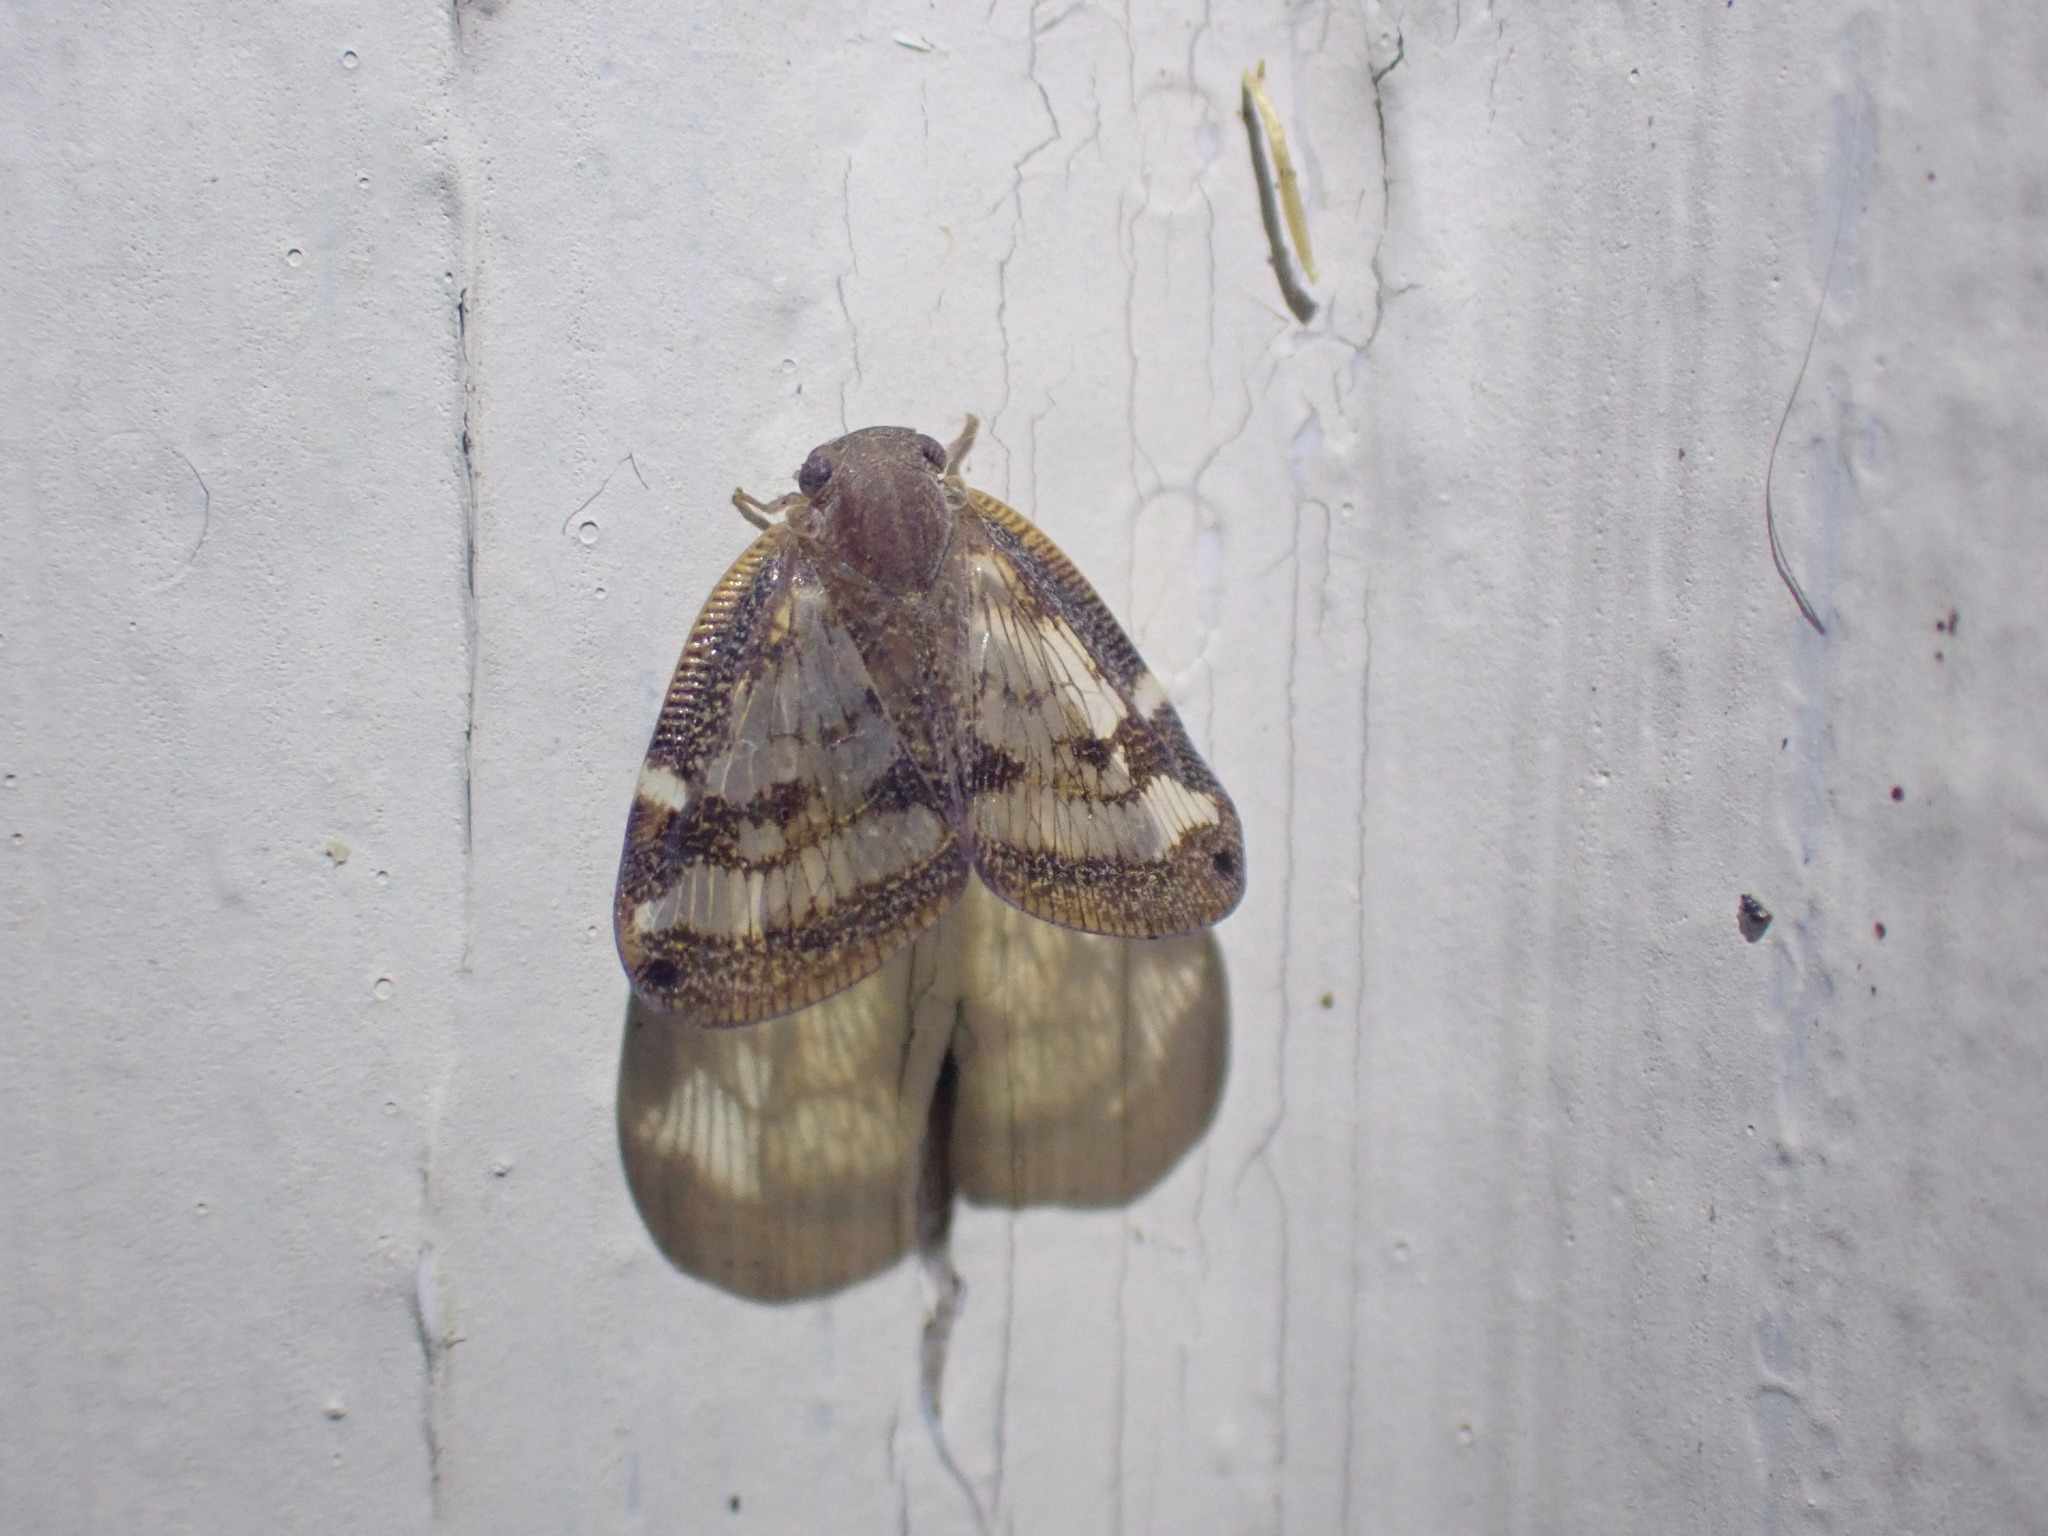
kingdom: Animalia
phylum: Arthropoda
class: Insecta
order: Hemiptera
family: Ricaniidae
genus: Scolypopa
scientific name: Scolypopa australis
